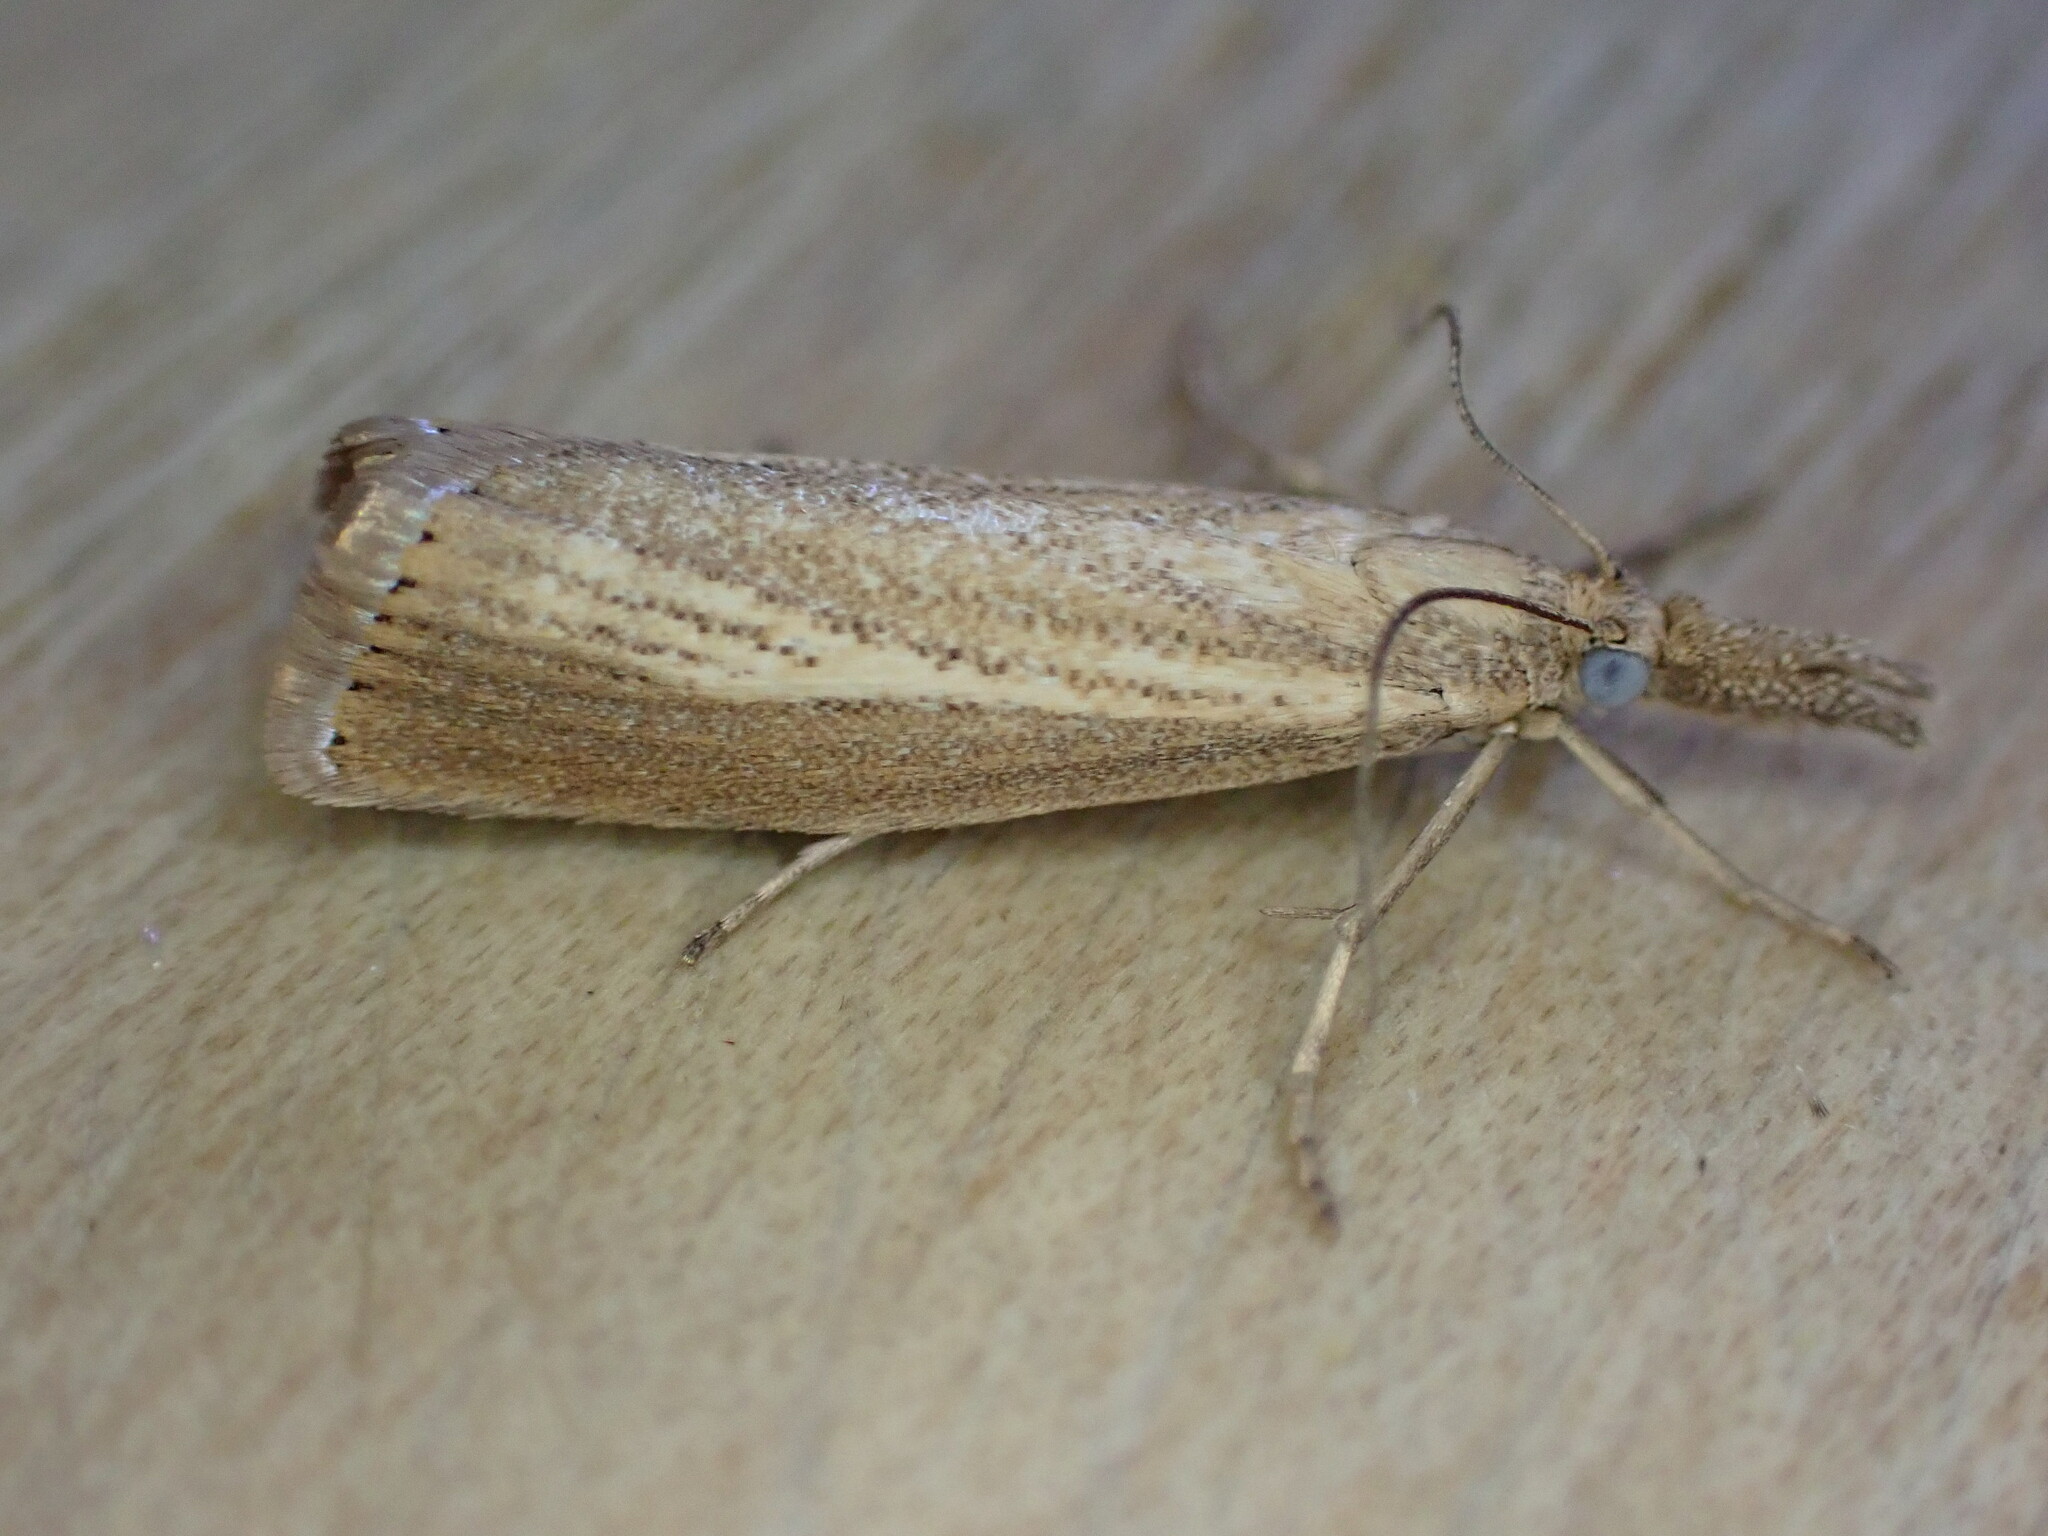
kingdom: Animalia
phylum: Arthropoda
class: Insecta
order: Lepidoptera
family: Crambidae
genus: Agriphila
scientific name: Agriphila straminella
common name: Straw grass-veneer
